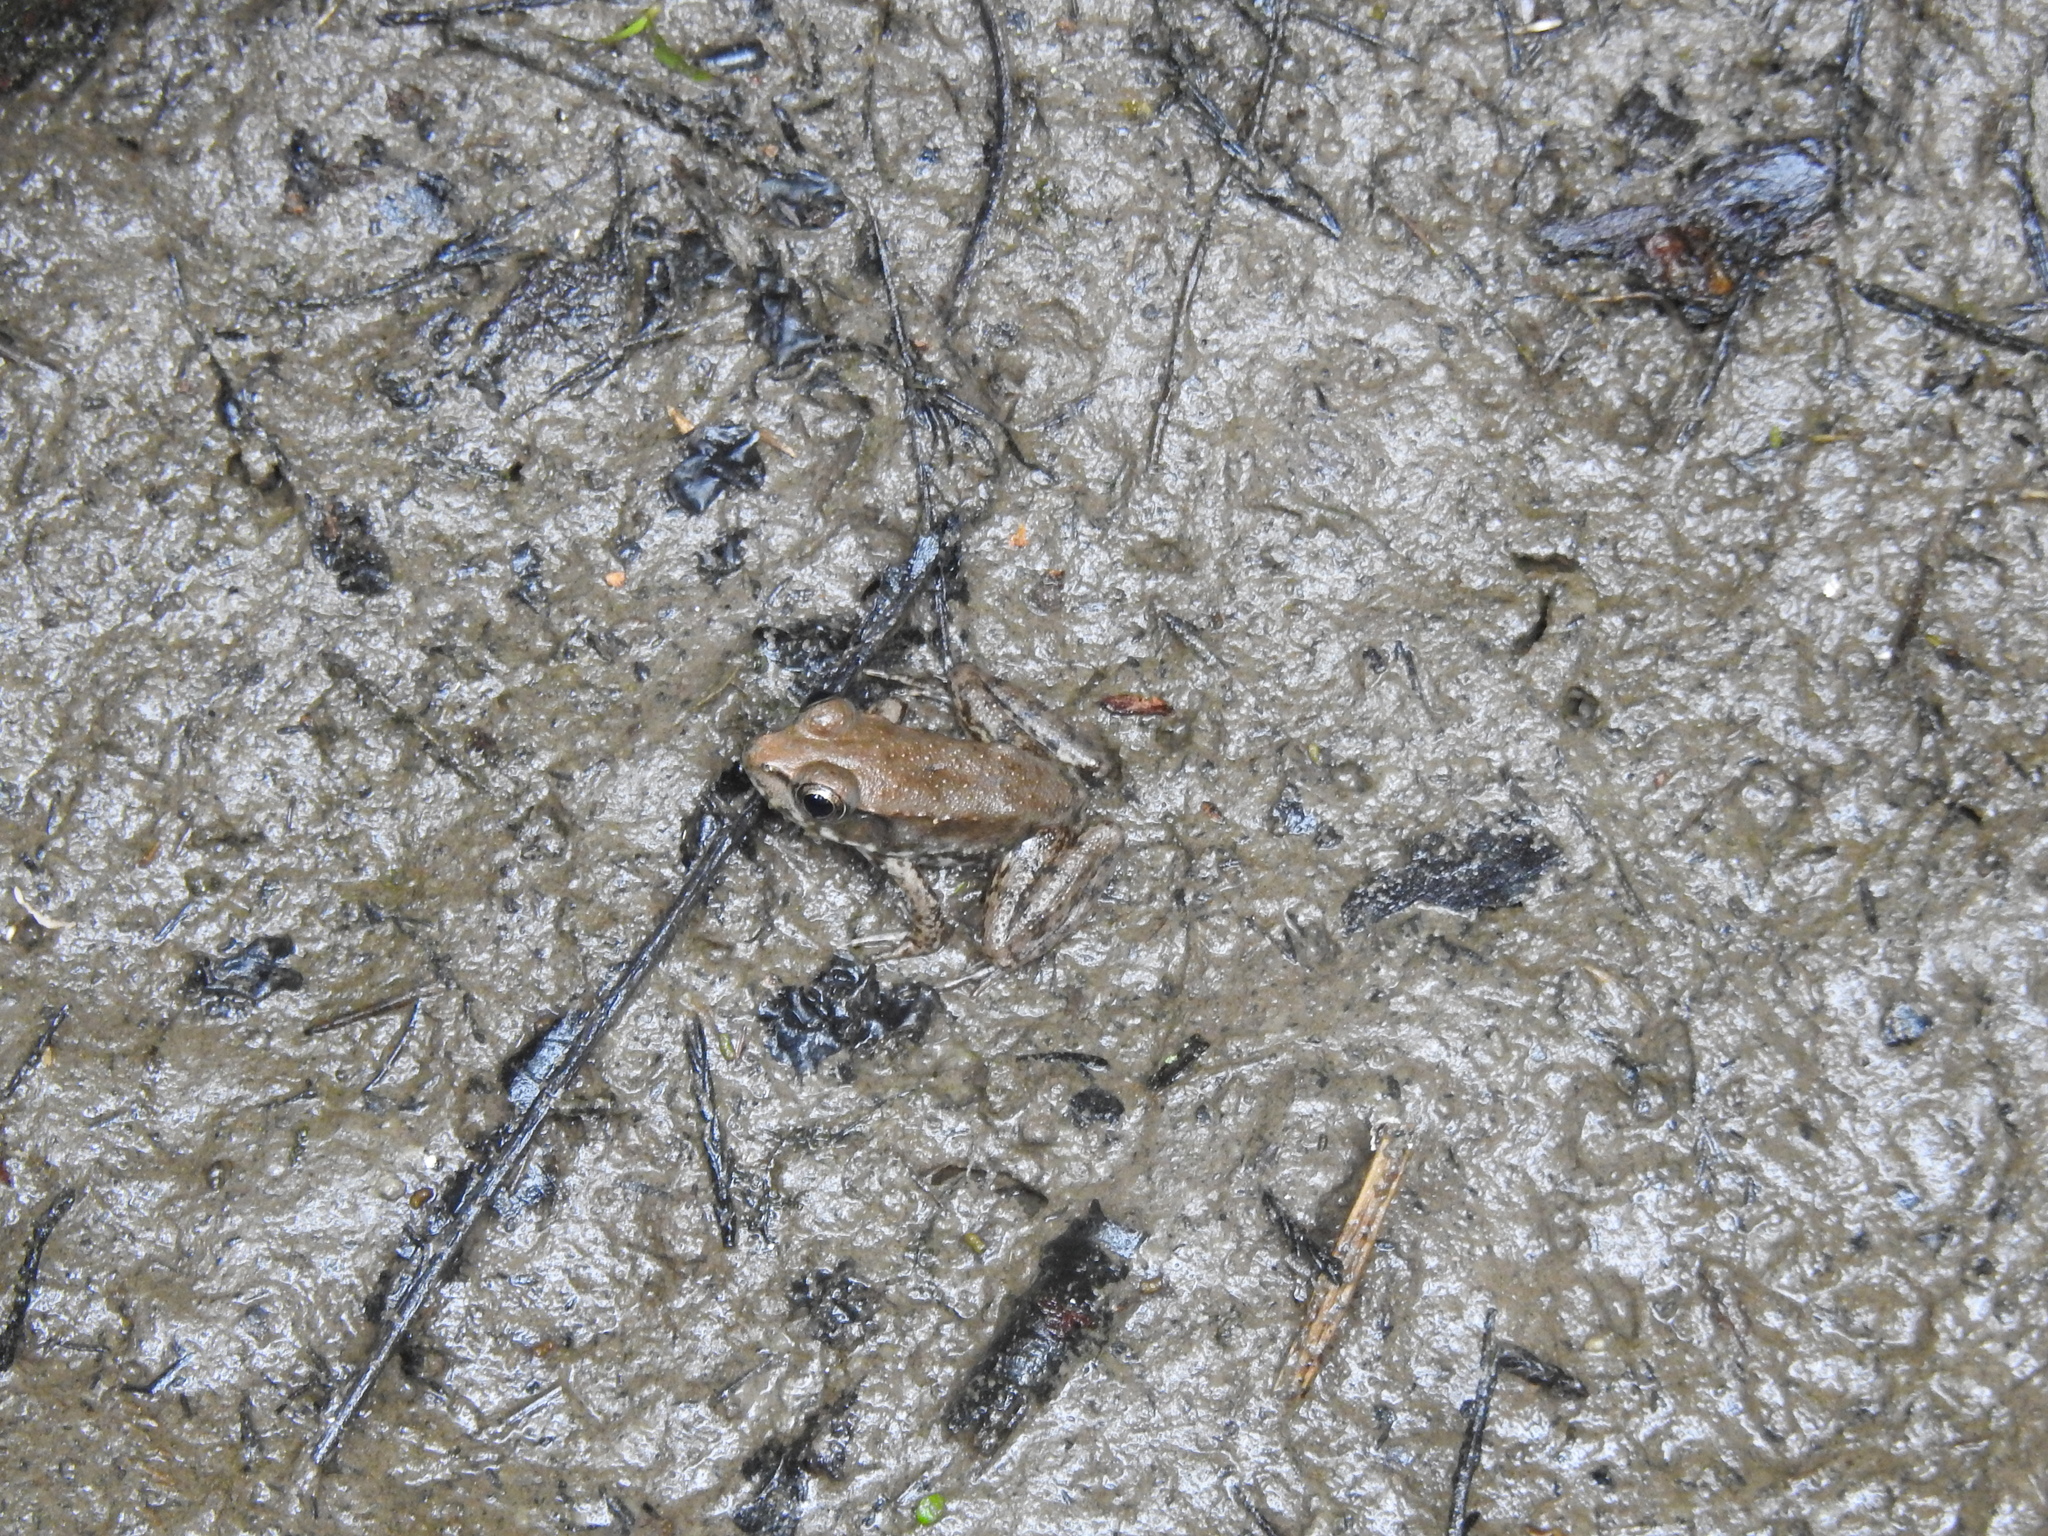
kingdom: Animalia
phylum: Chordata
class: Amphibia
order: Anura
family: Ranidae
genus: Lithobates
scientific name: Lithobates clamitans
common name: Green frog
